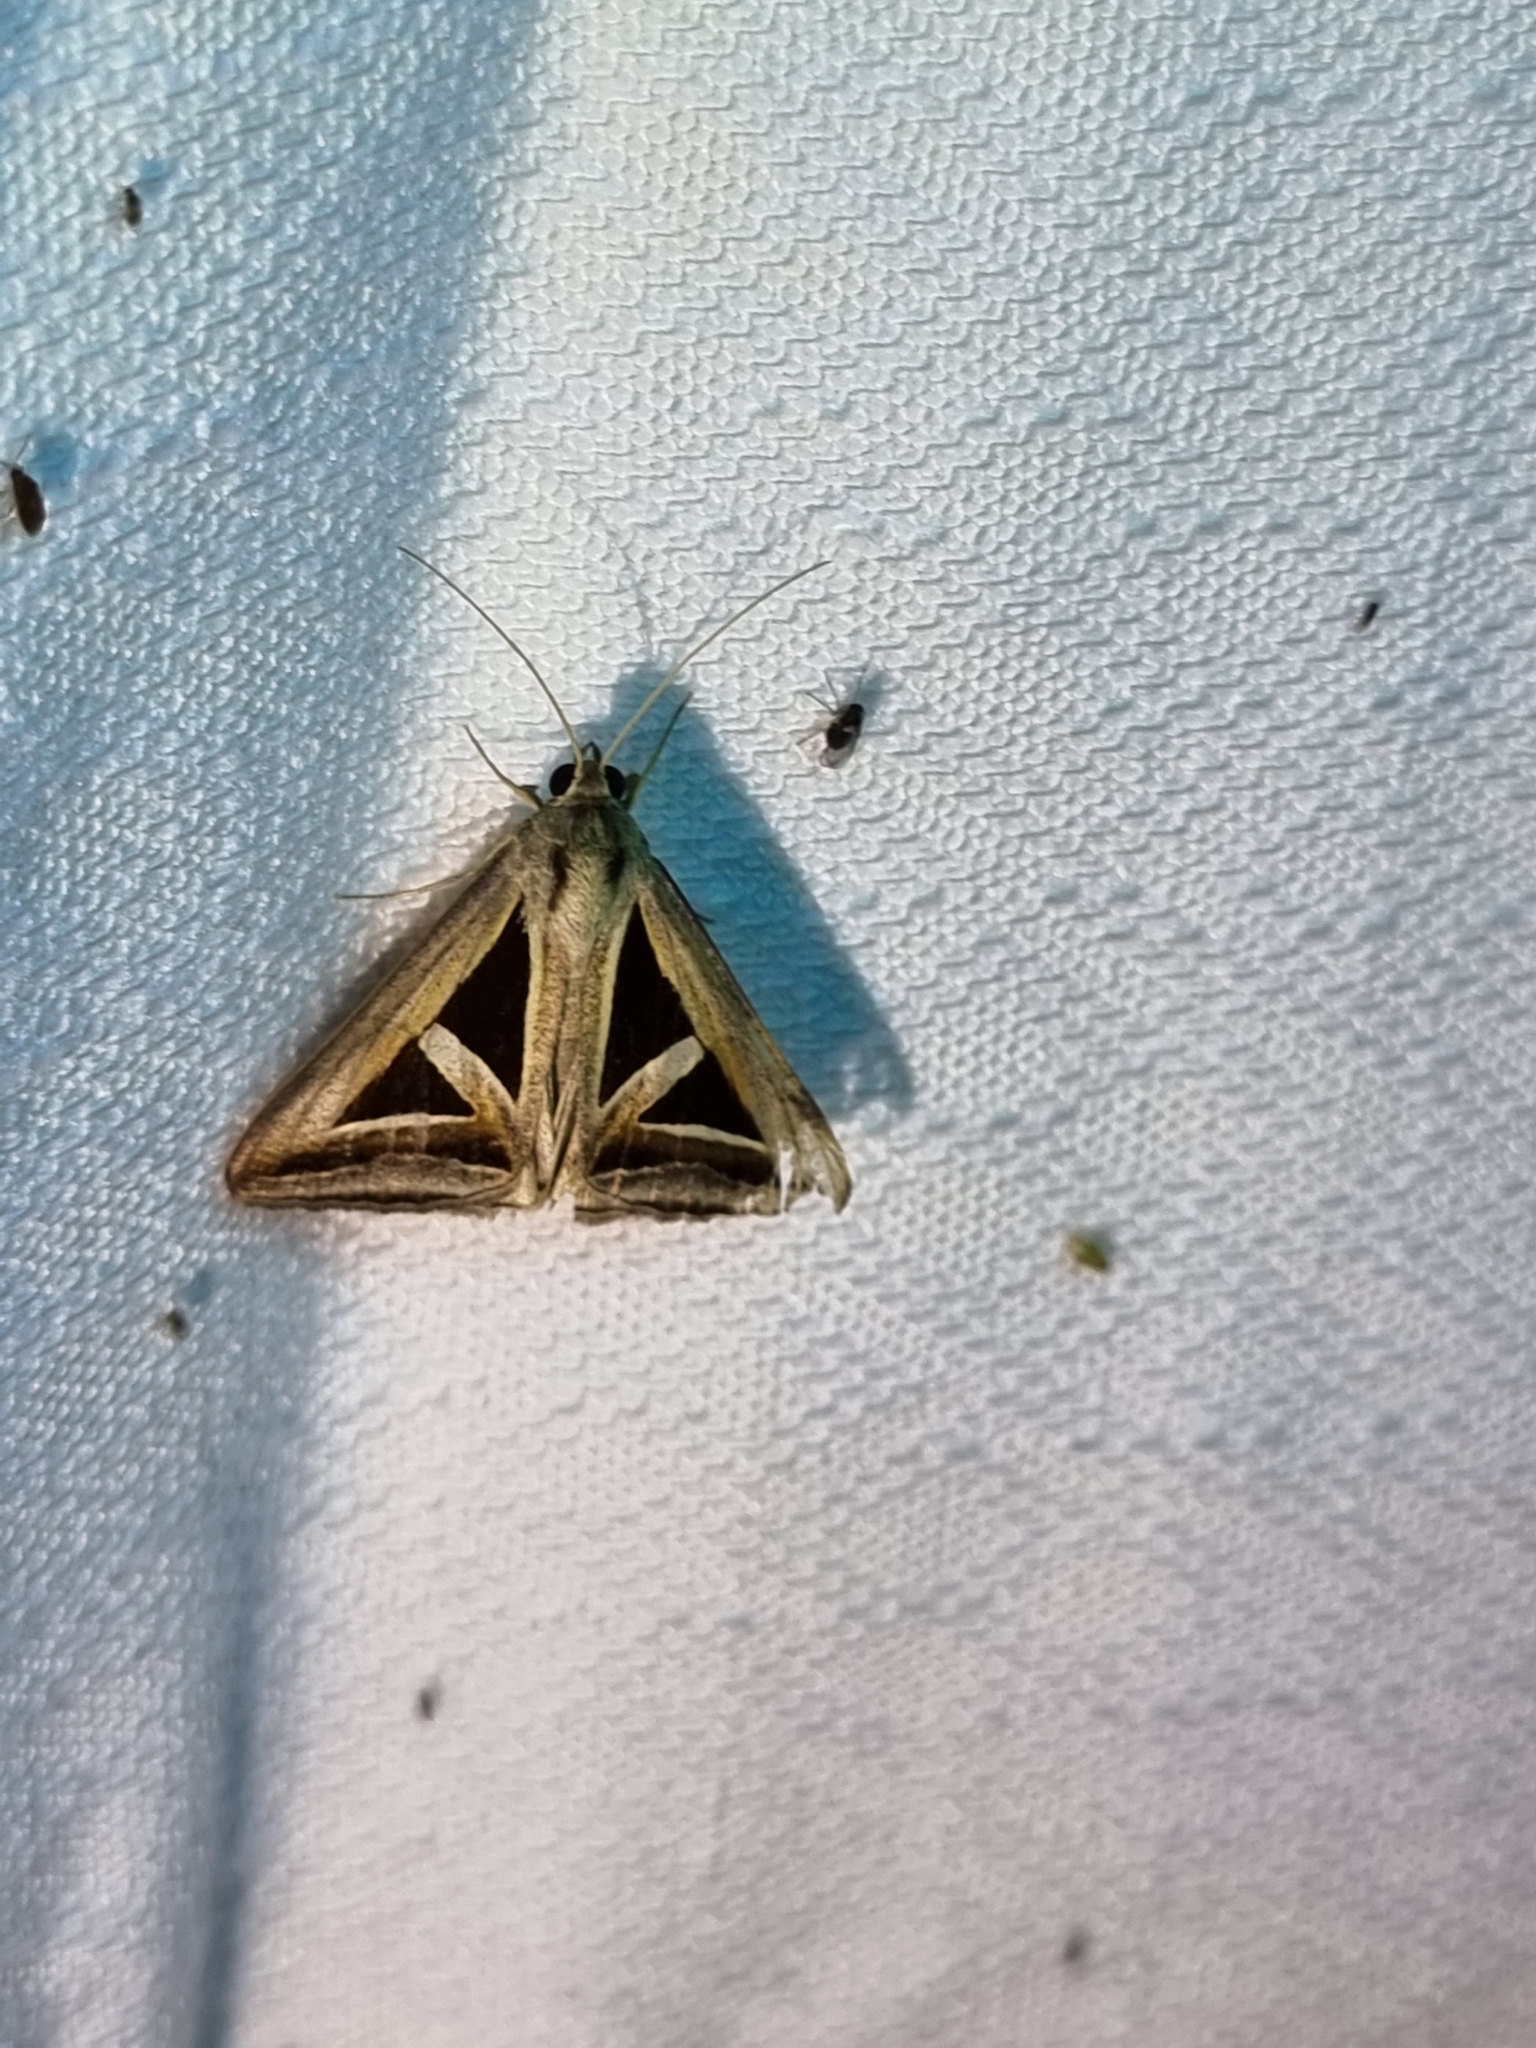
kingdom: Animalia
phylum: Arthropoda
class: Insecta
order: Lepidoptera
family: Erebidae
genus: Trigonodes
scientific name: Trigonodes hyppasia
